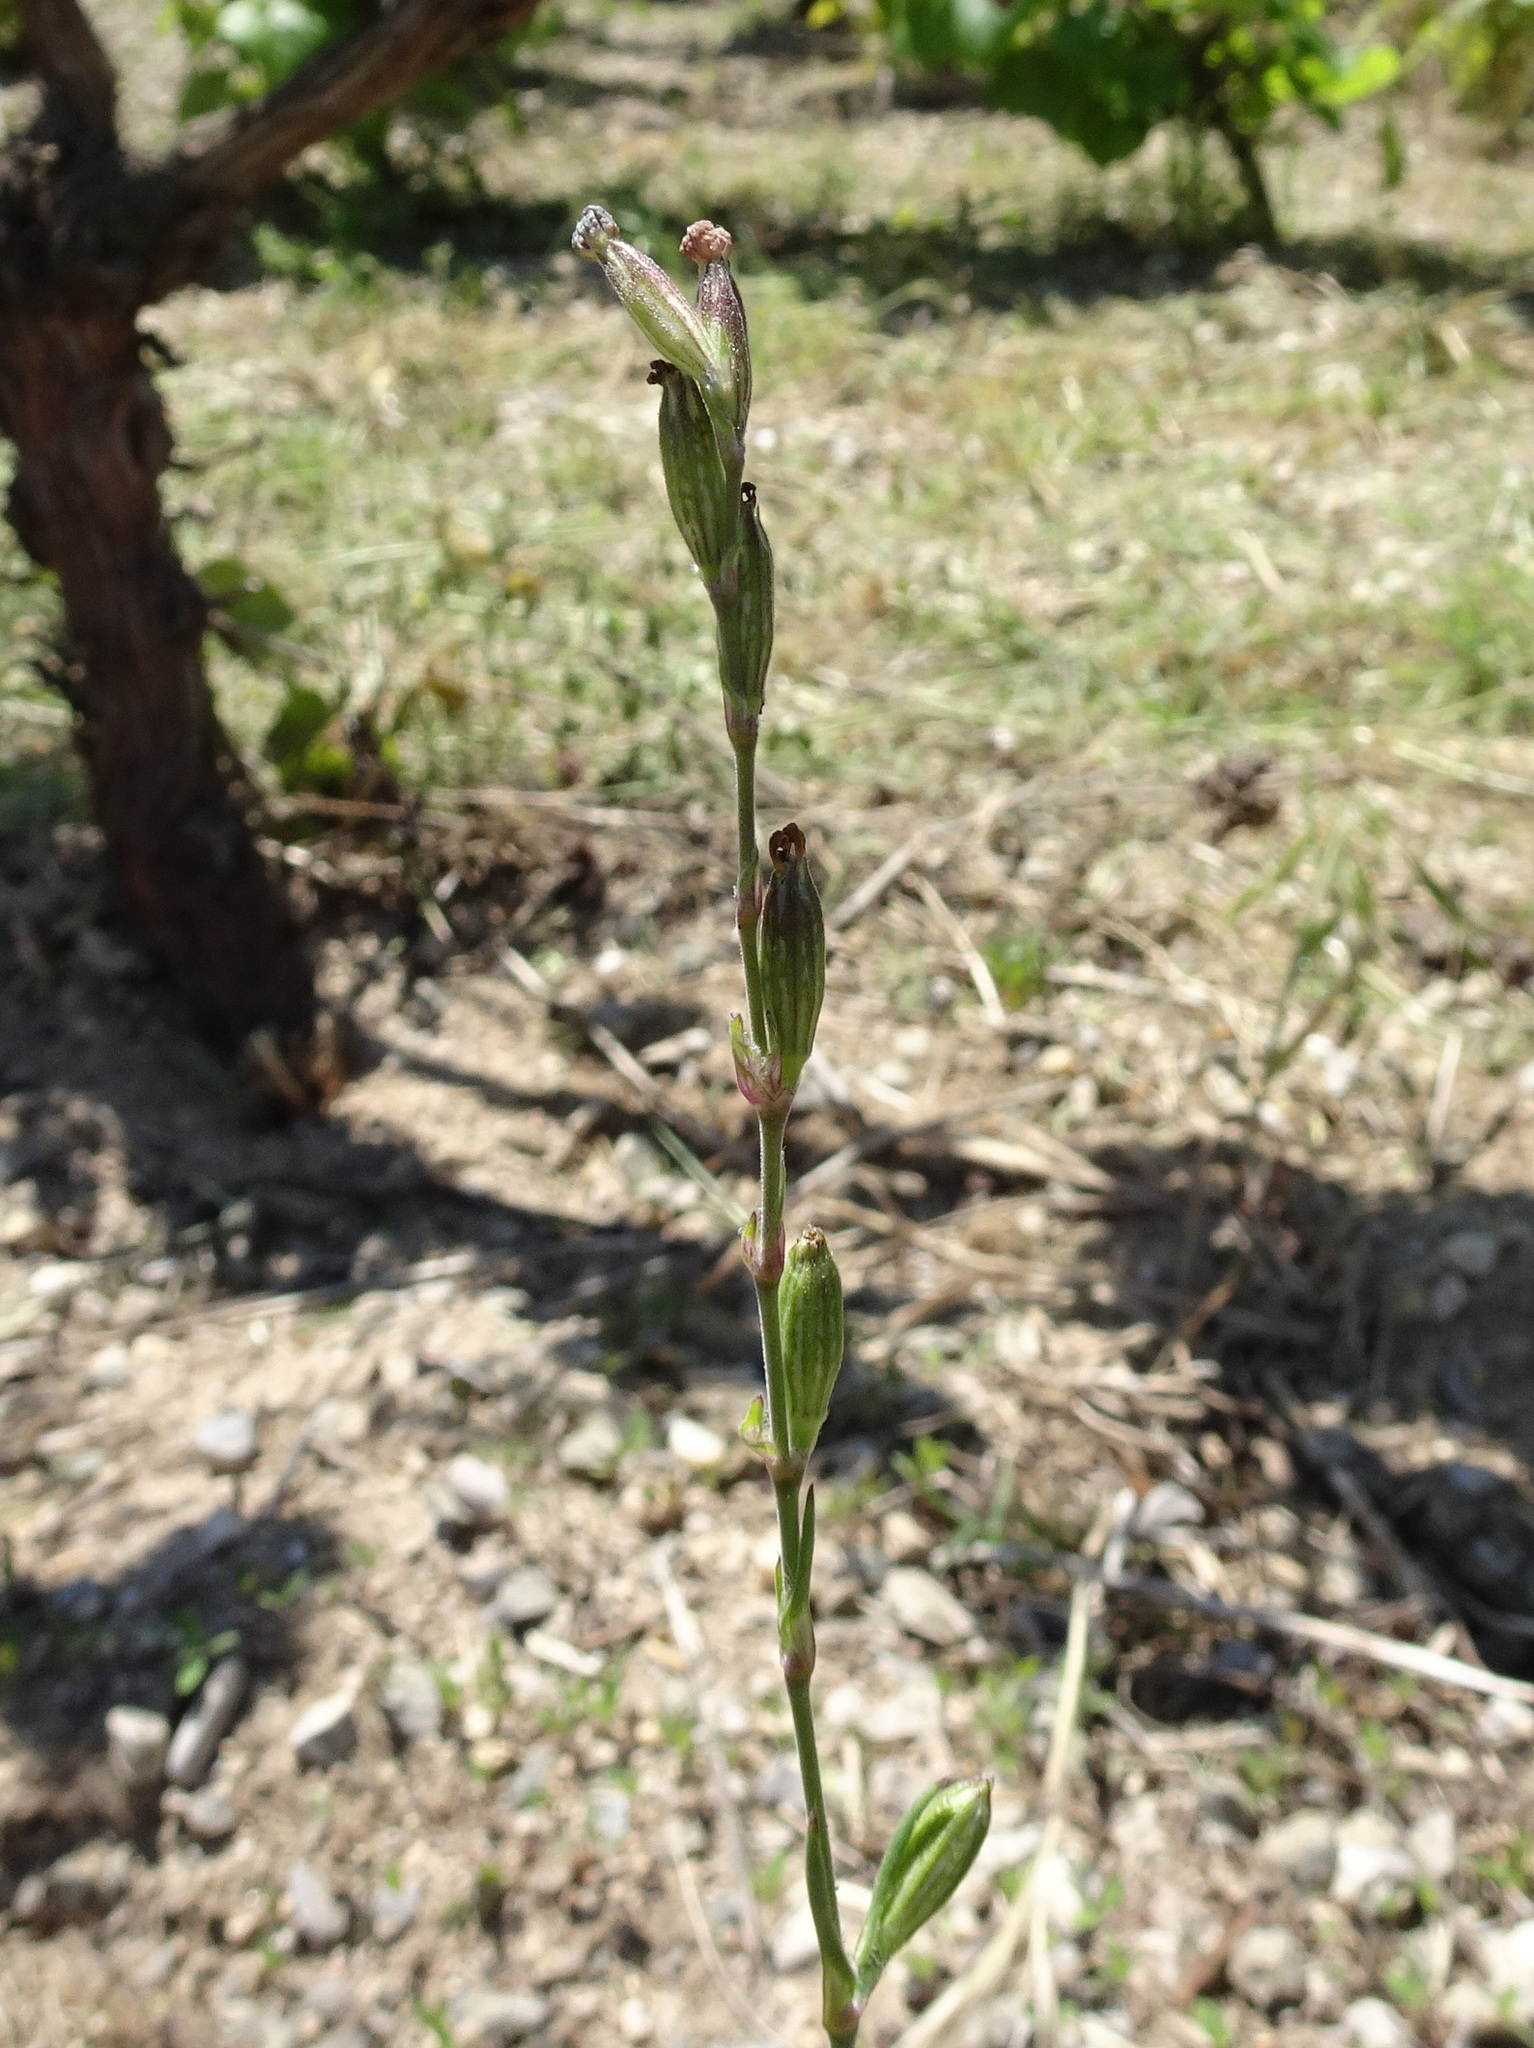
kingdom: Plantae
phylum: Tracheophyta
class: Magnoliopsida
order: Caryophyllales
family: Caryophyllaceae
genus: Silene
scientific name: Silene nocturna
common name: Mediterranean catchfly
